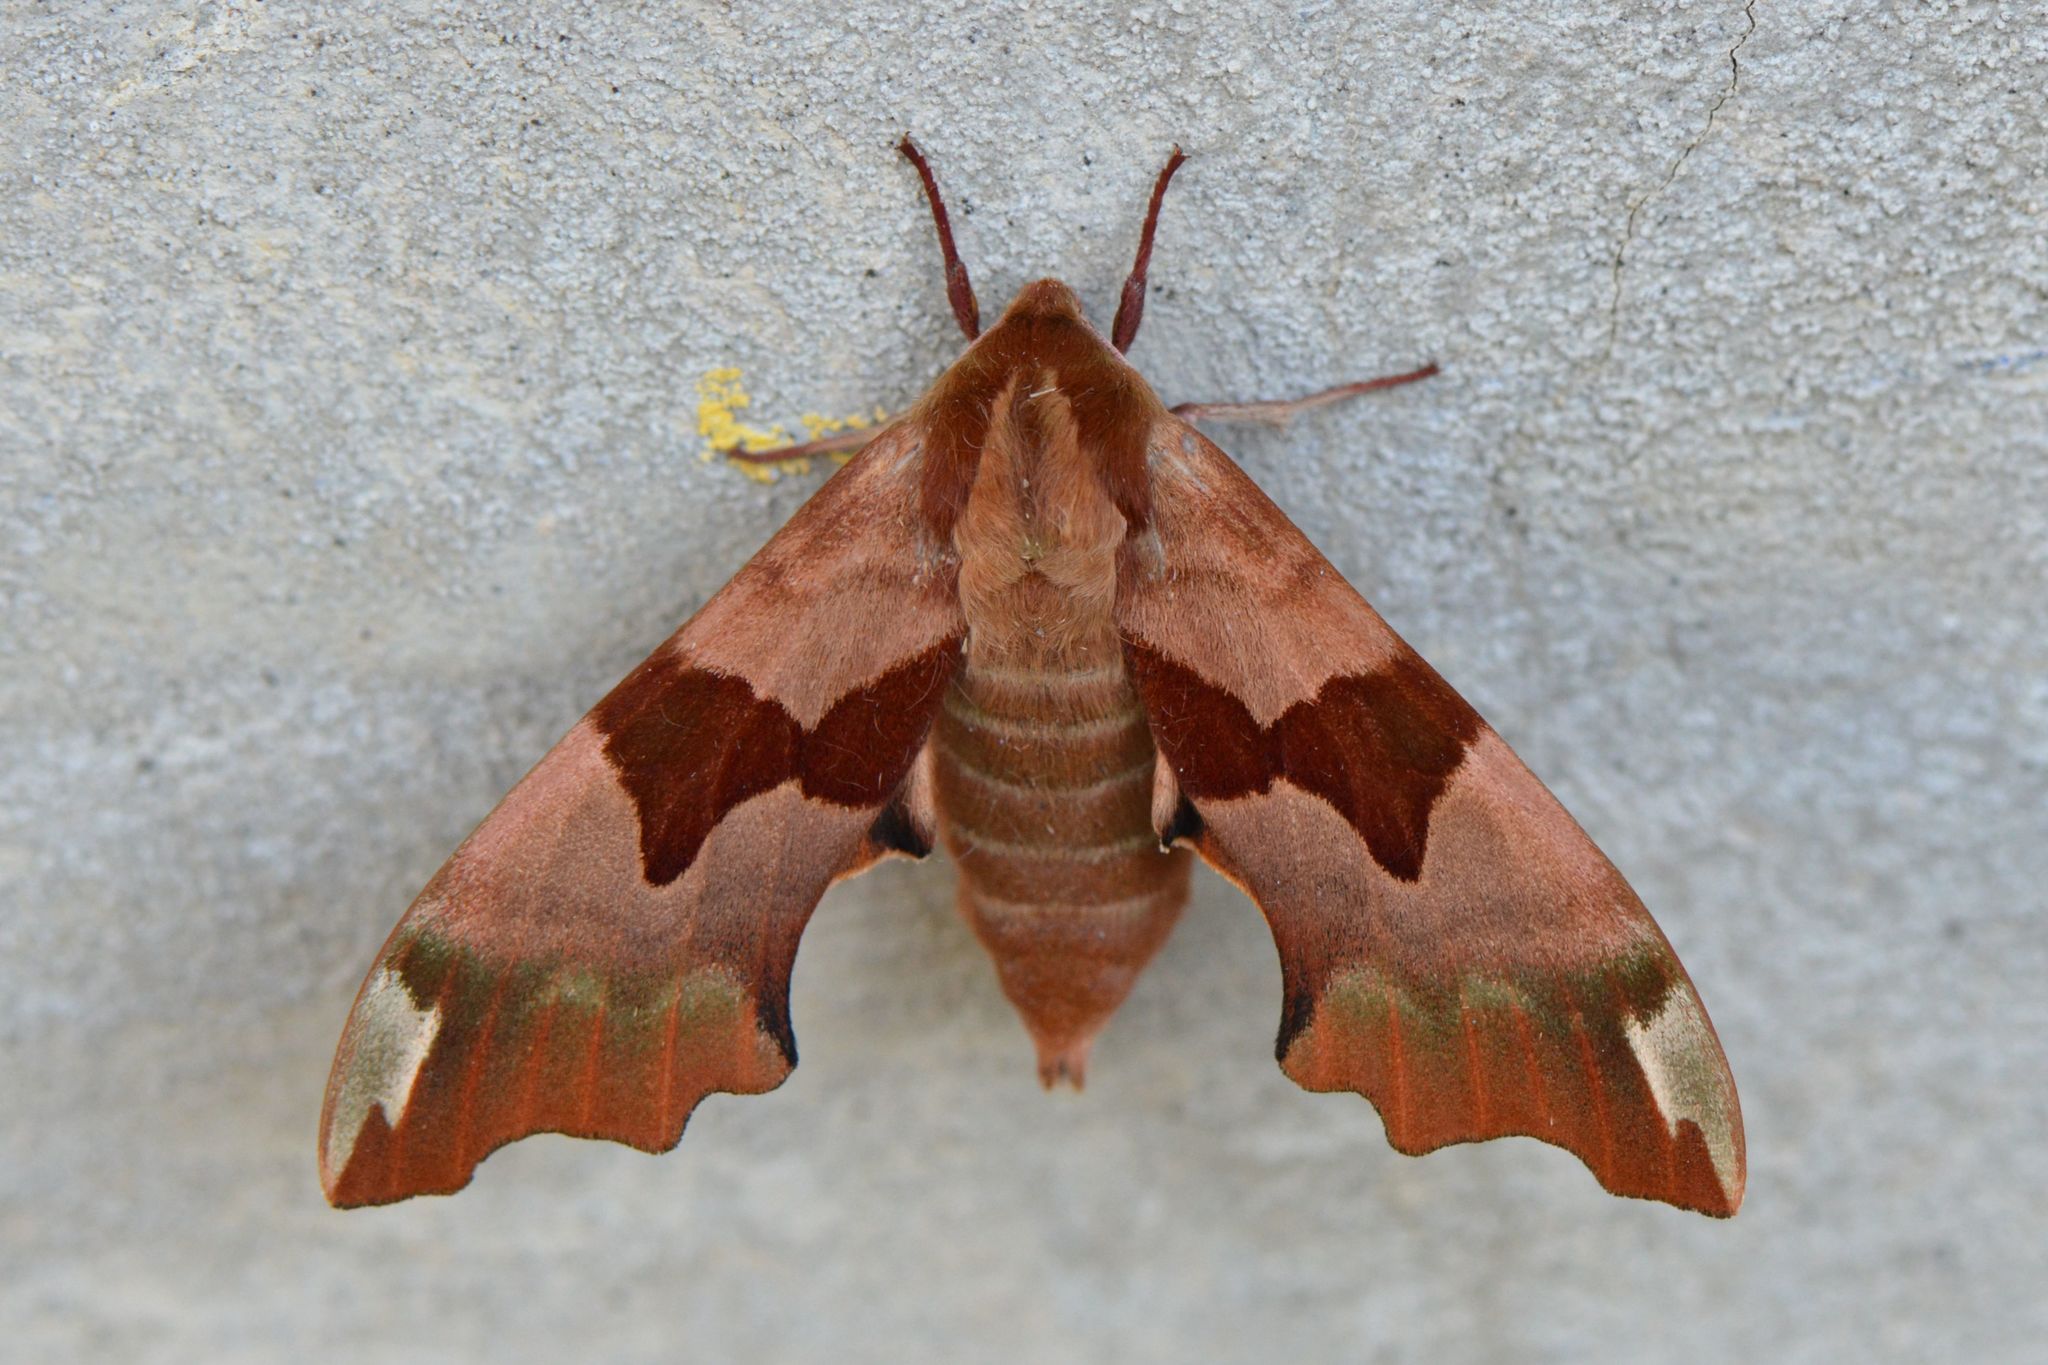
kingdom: Animalia
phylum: Arthropoda
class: Insecta
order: Lepidoptera
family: Sphingidae
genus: Mimas
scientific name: Mimas tiliae
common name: Lime hawk-moth
